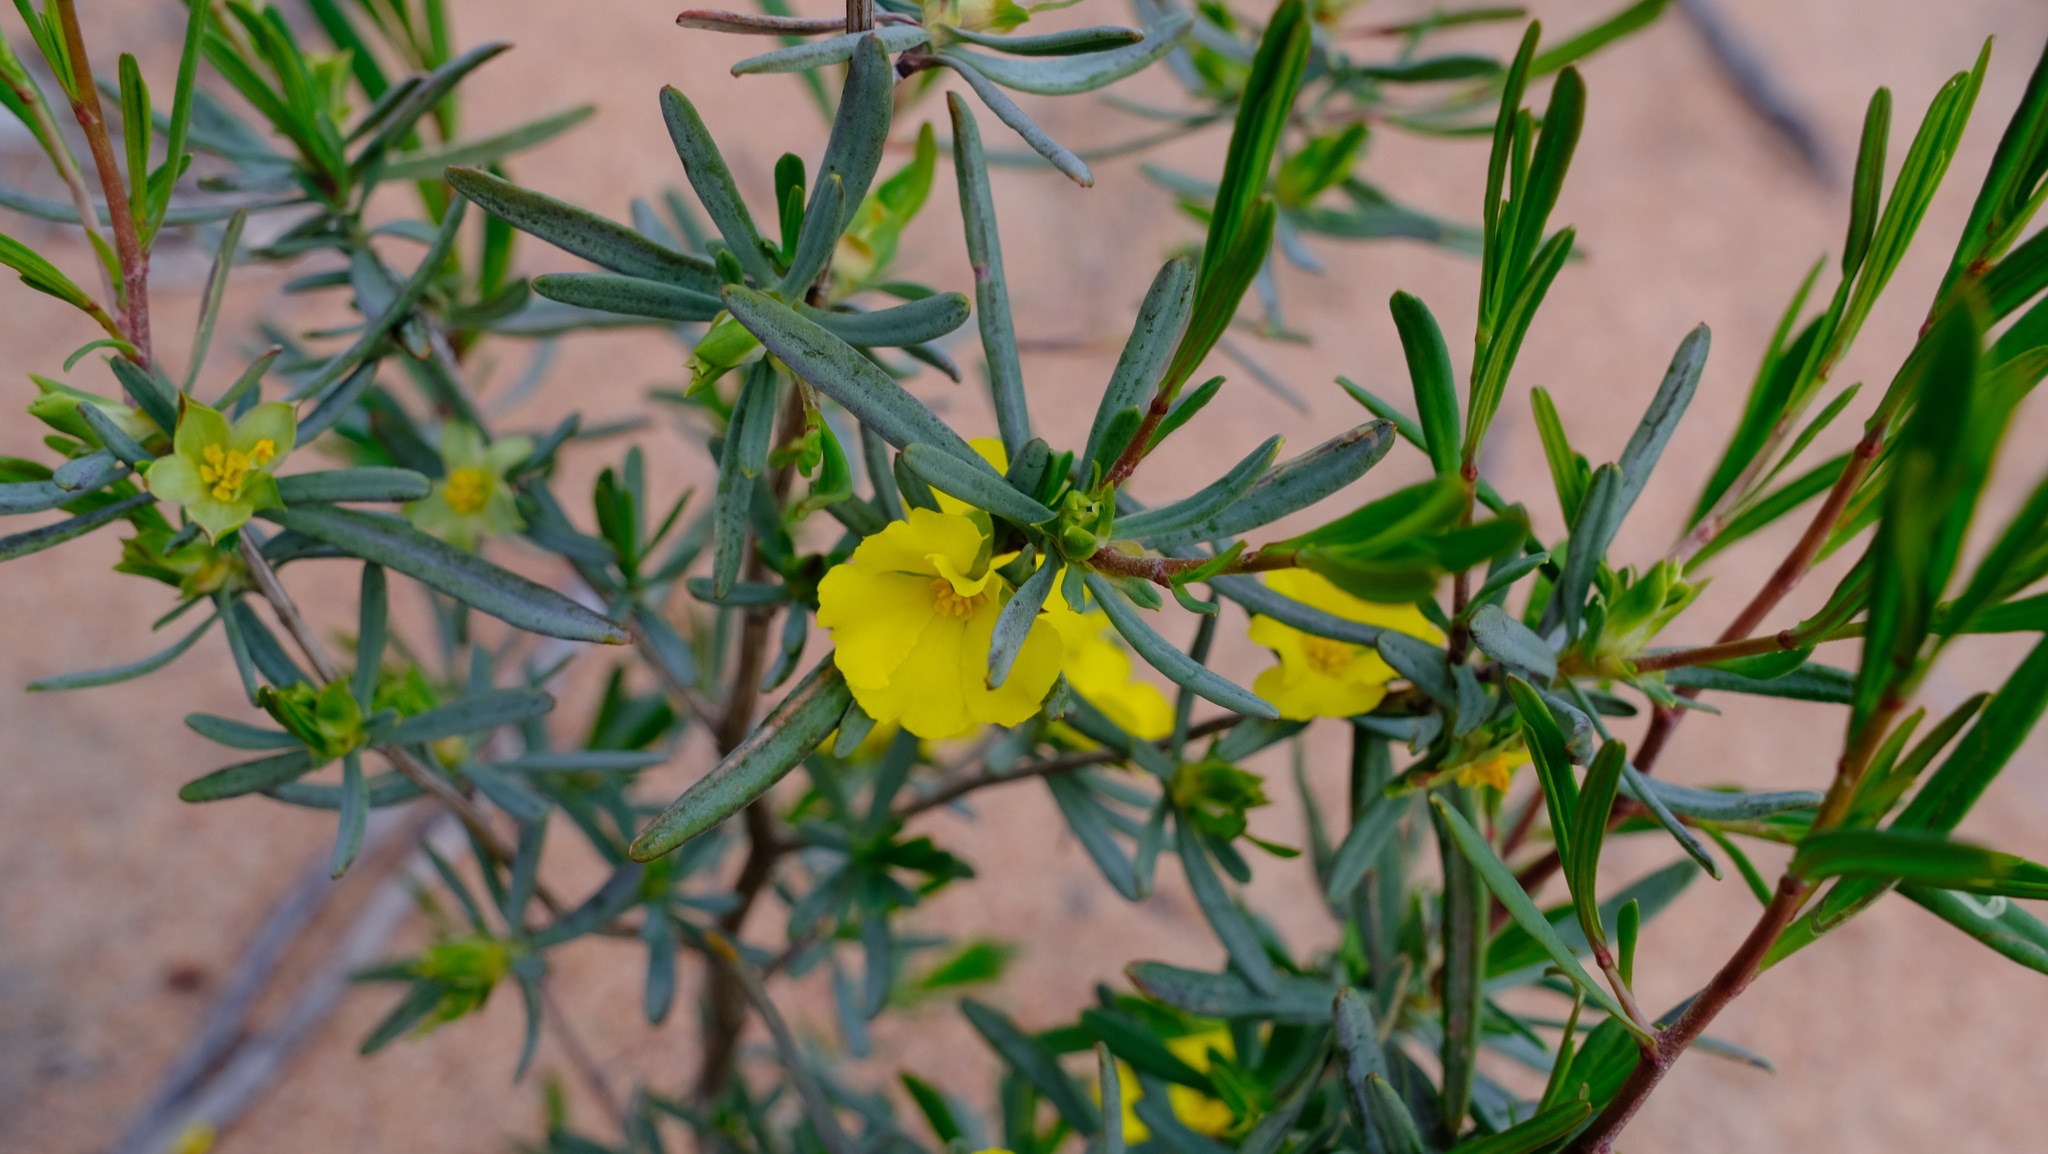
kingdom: Plantae
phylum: Tracheophyta
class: Magnoliopsida
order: Dilleniales
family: Dilleniaceae
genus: Hibbertia
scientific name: Hibbertia glabrisepala
